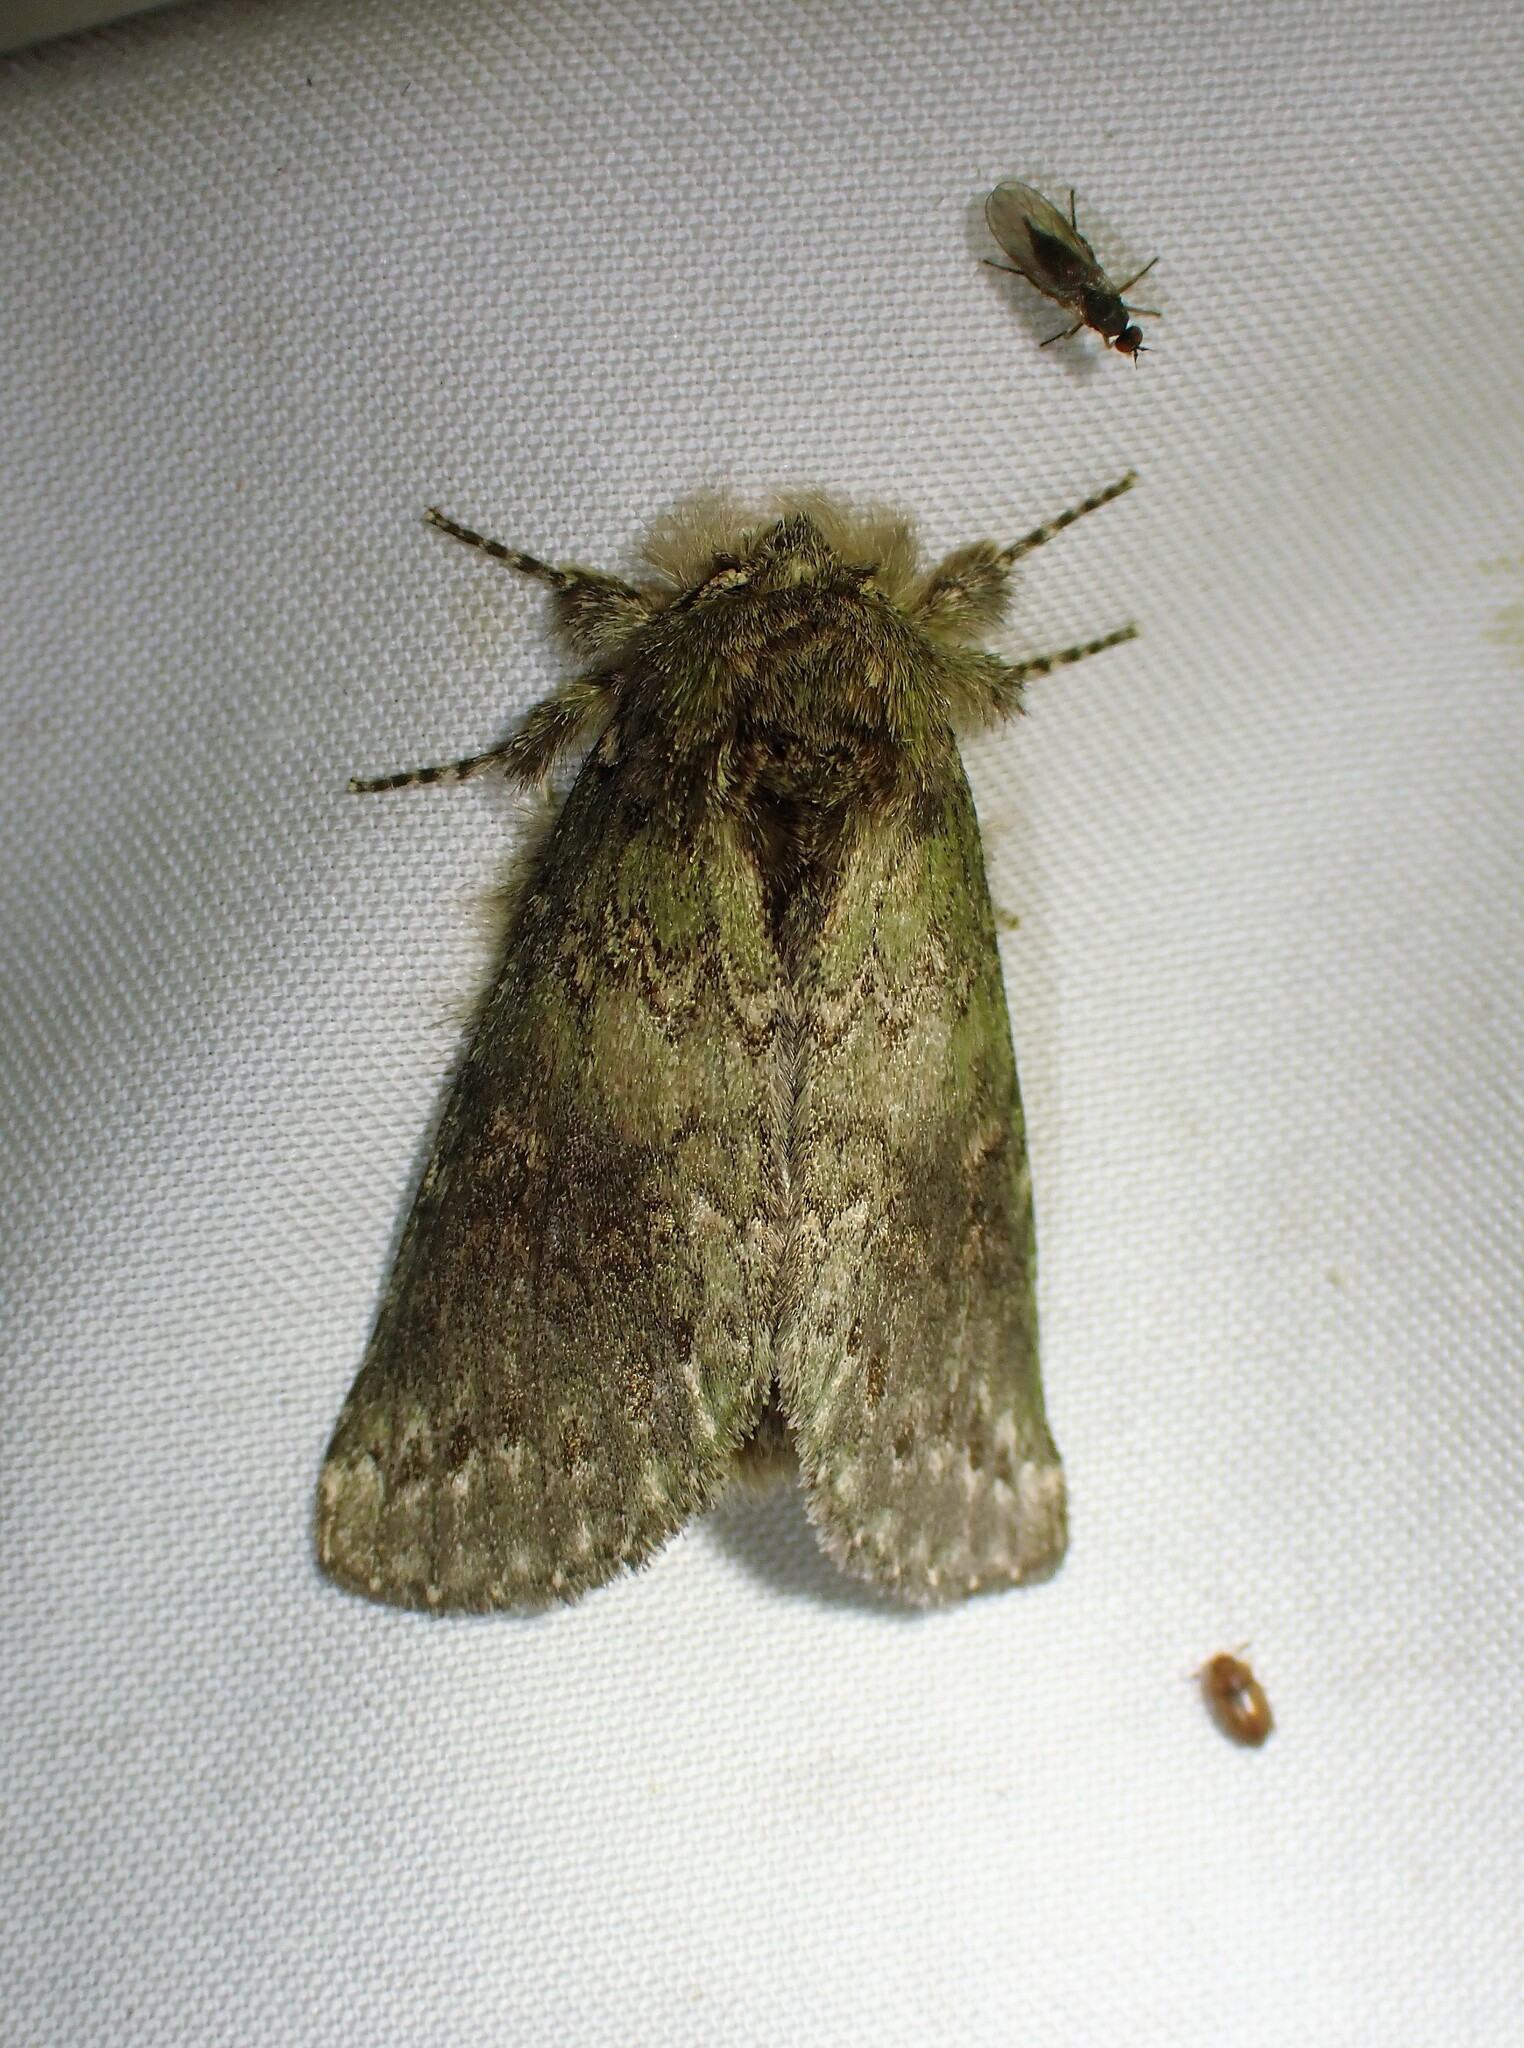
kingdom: Animalia
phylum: Arthropoda
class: Insecta
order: Lepidoptera
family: Notodontidae
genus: Disphragis
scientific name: Disphragis Cecrita biundata
